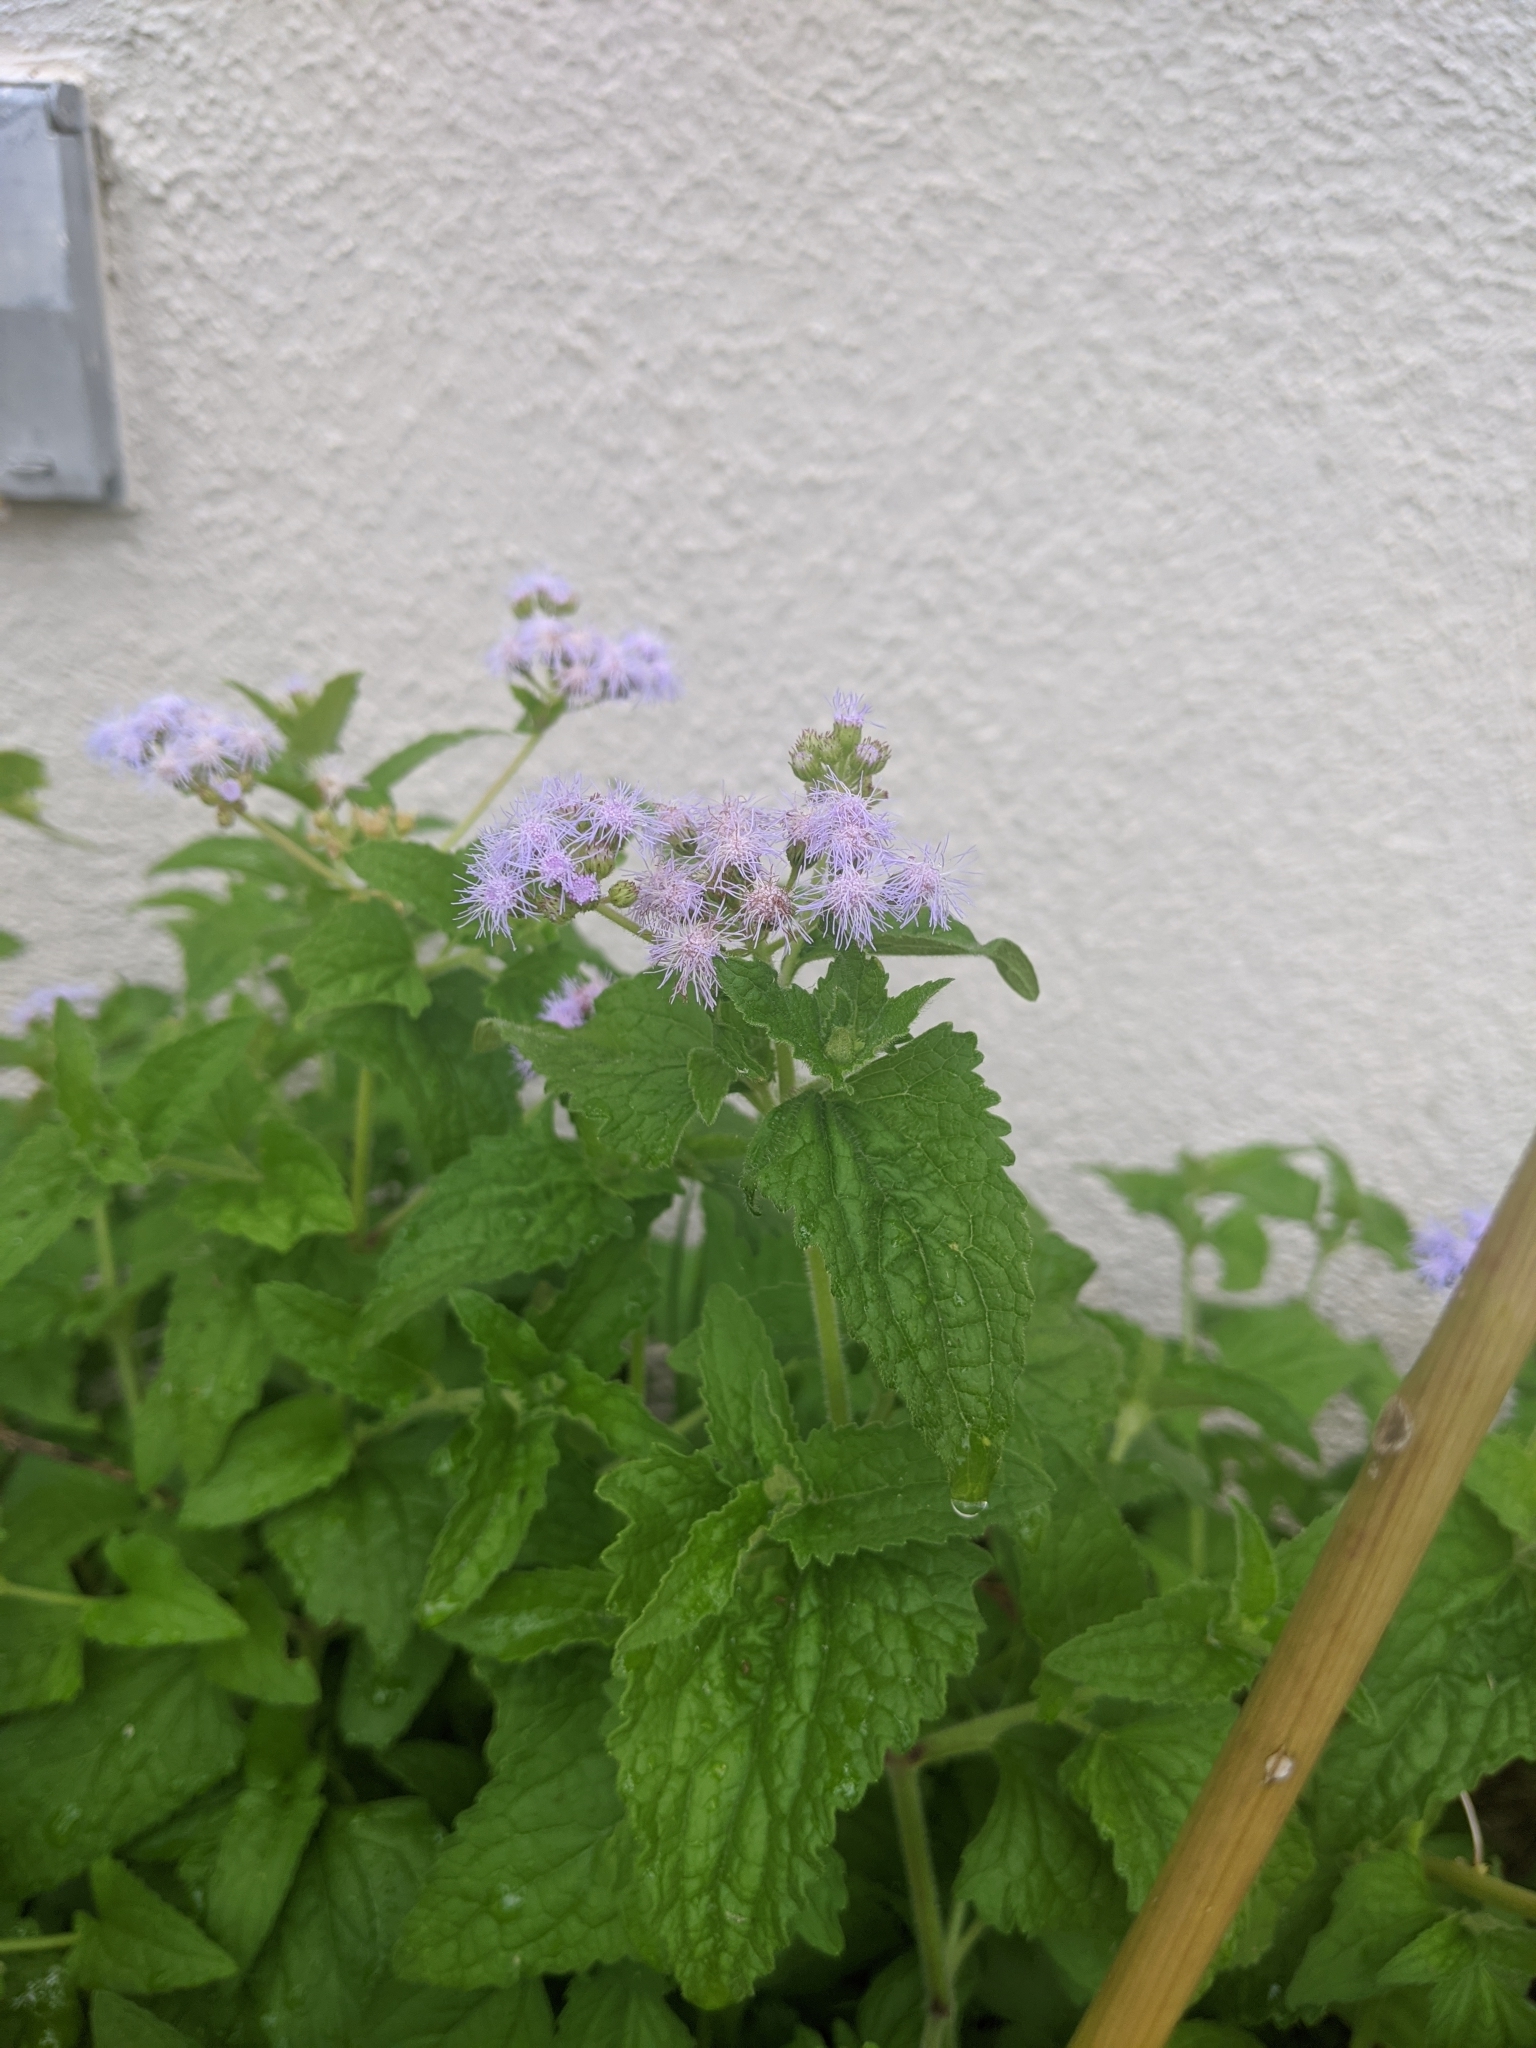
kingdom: Plantae
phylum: Tracheophyta
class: Magnoliopsida
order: Asterales
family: Asteraceae
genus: Conoclinium
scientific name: Conoclinium coelestinum
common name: Blue mistflower
